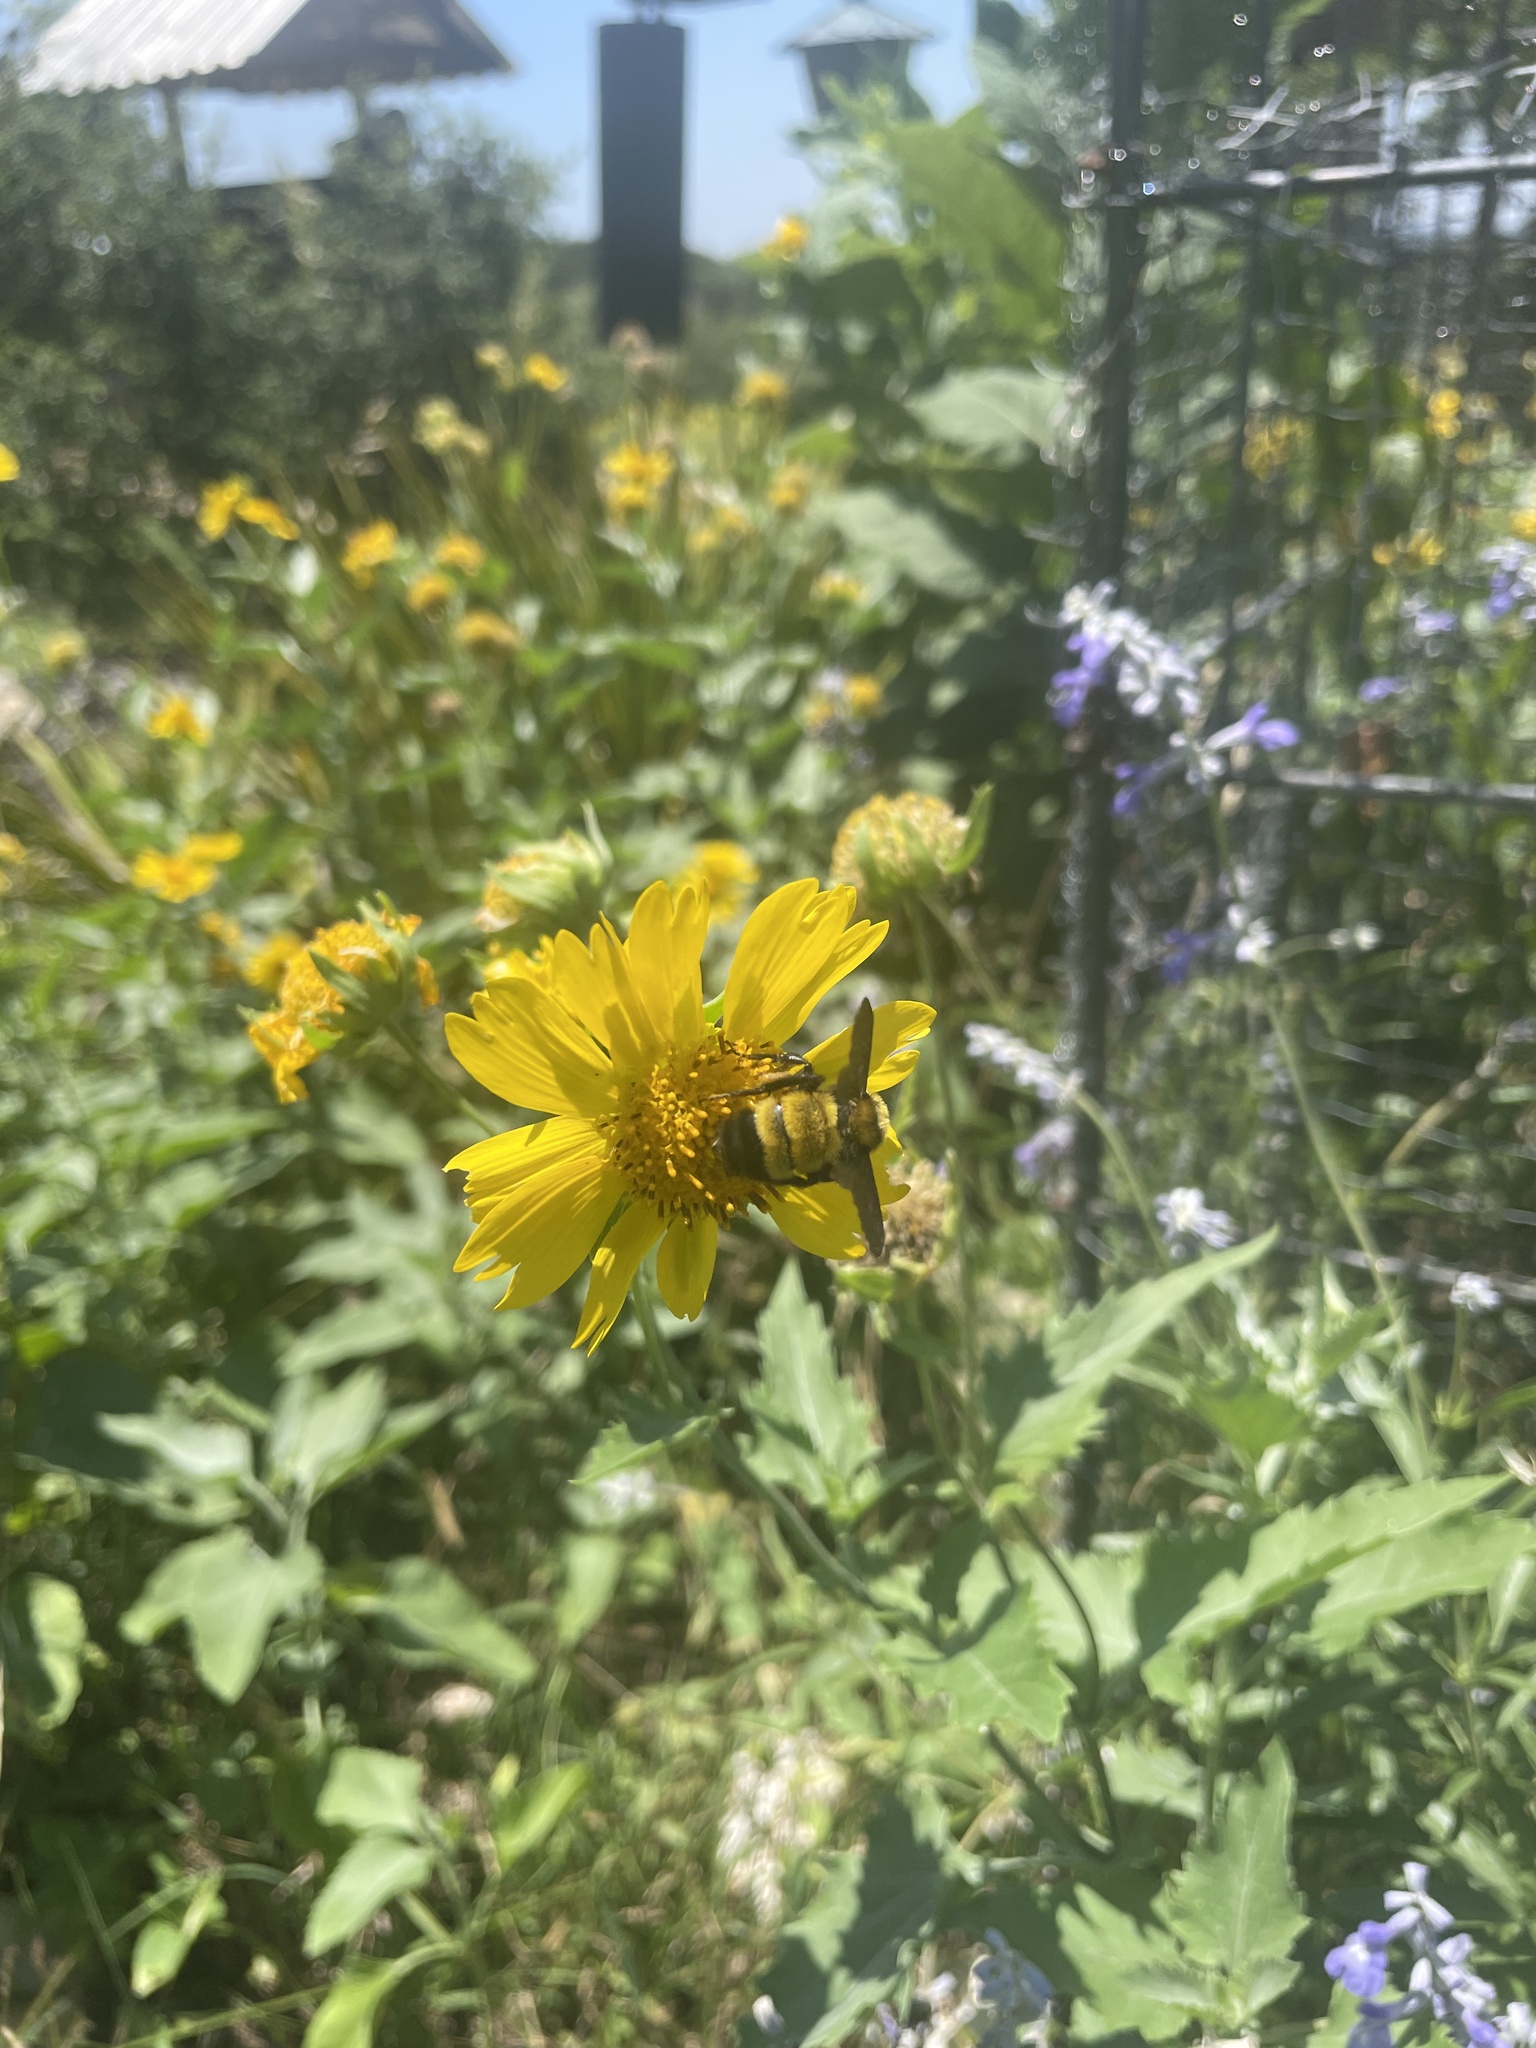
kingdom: Animalia
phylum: Arthropoda
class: Insecta
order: Hymenoptera
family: Apidae
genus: Bombus
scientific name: Bombus sonorus
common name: Sonoran bumble bee
